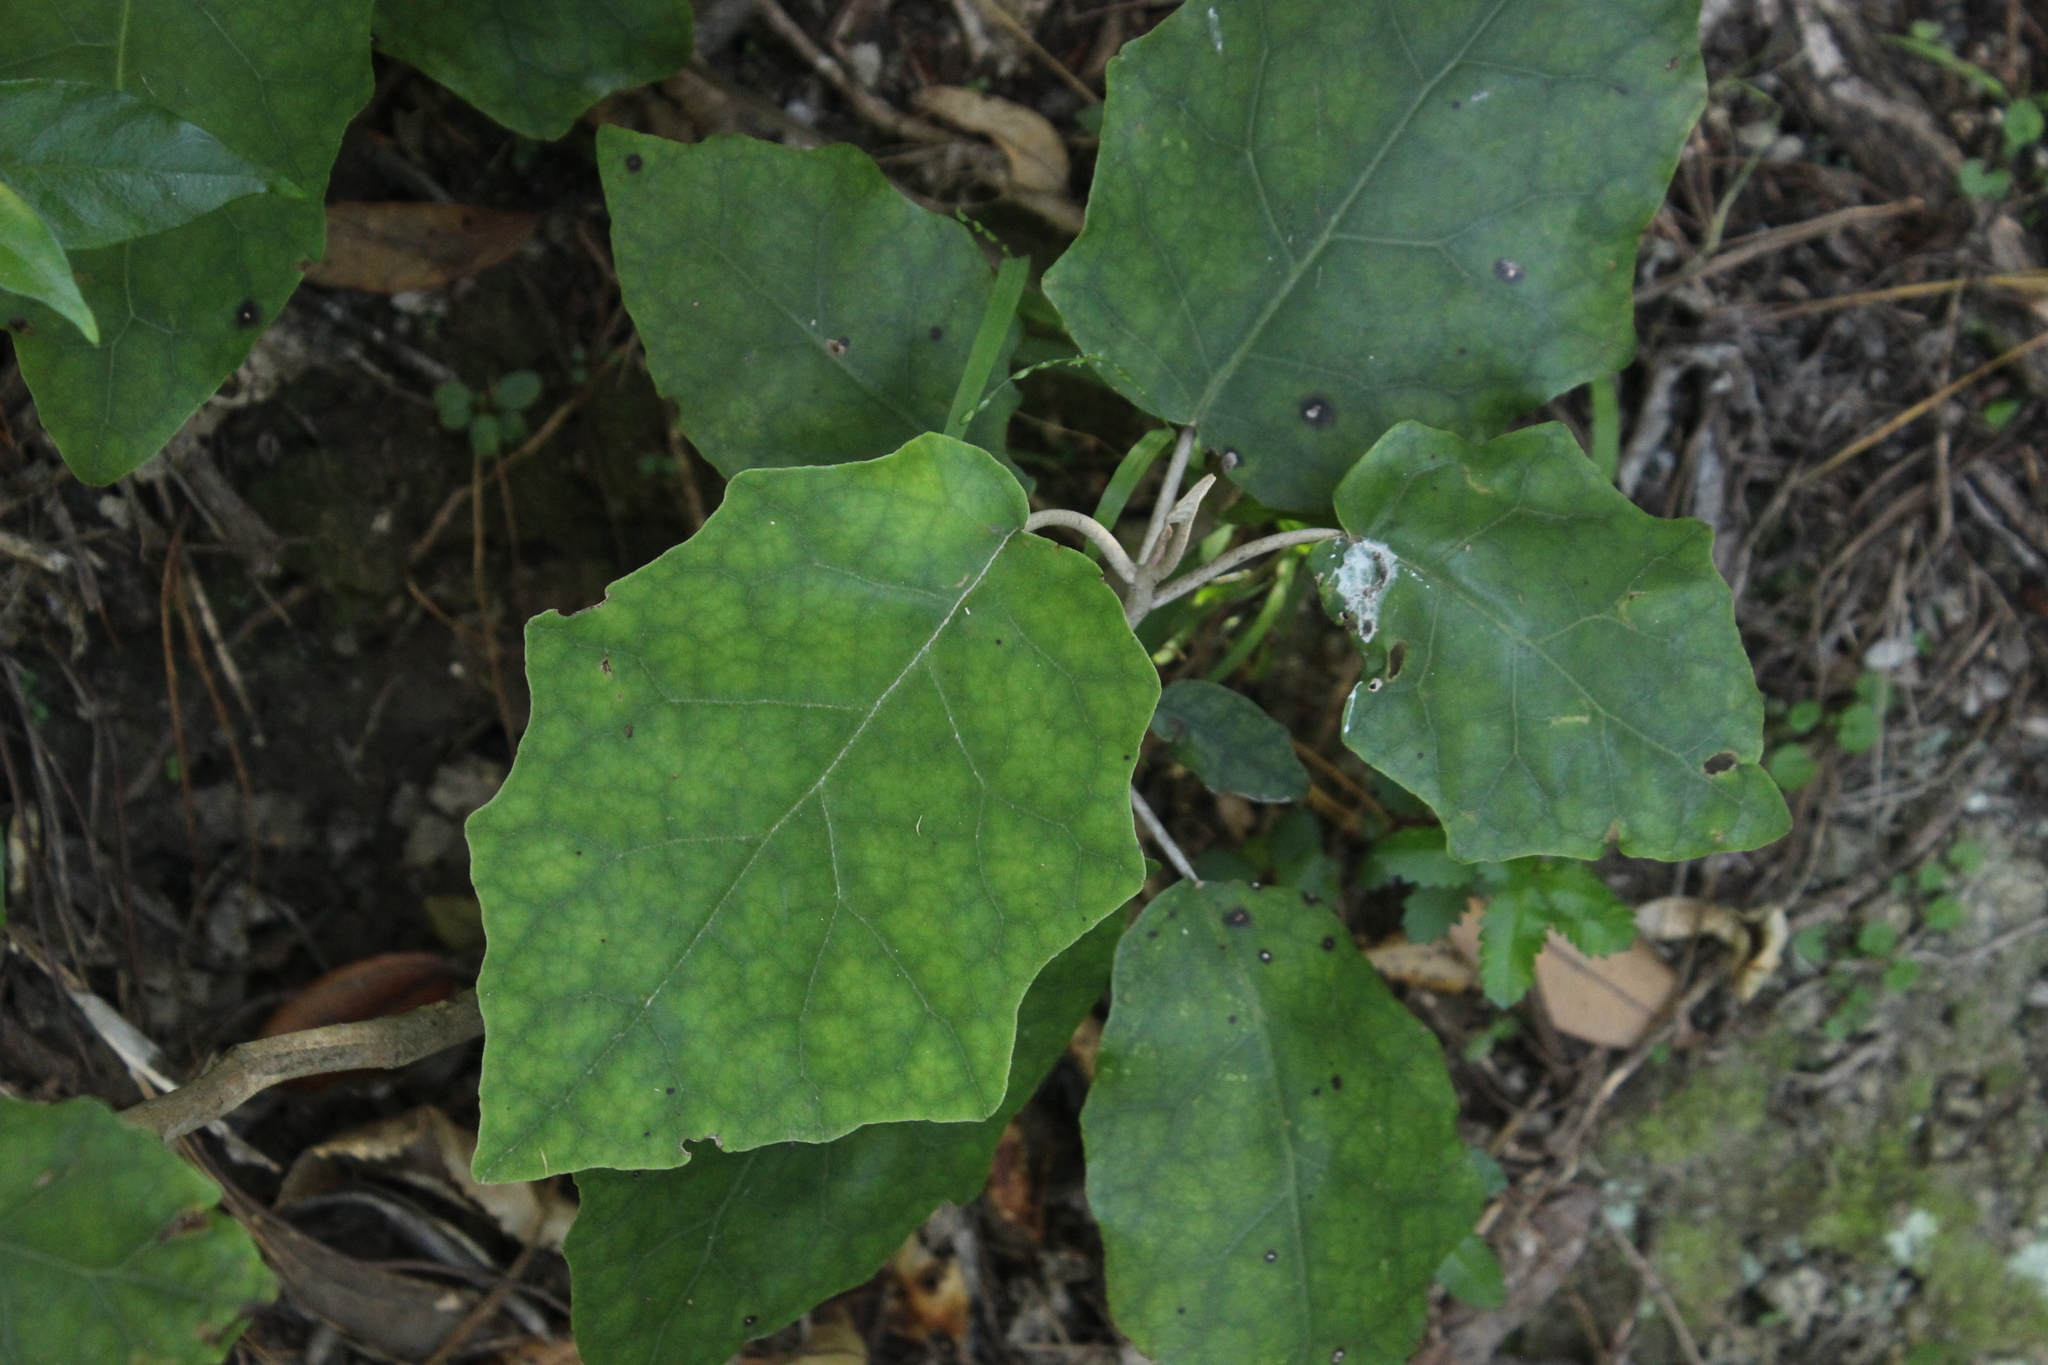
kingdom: Plantae
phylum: Tracheophyta
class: Magnoliopsida
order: Asterales
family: Asteraceae
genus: Brachyglottis
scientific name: Brachyglottis repanda
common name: Hedge ragwort
